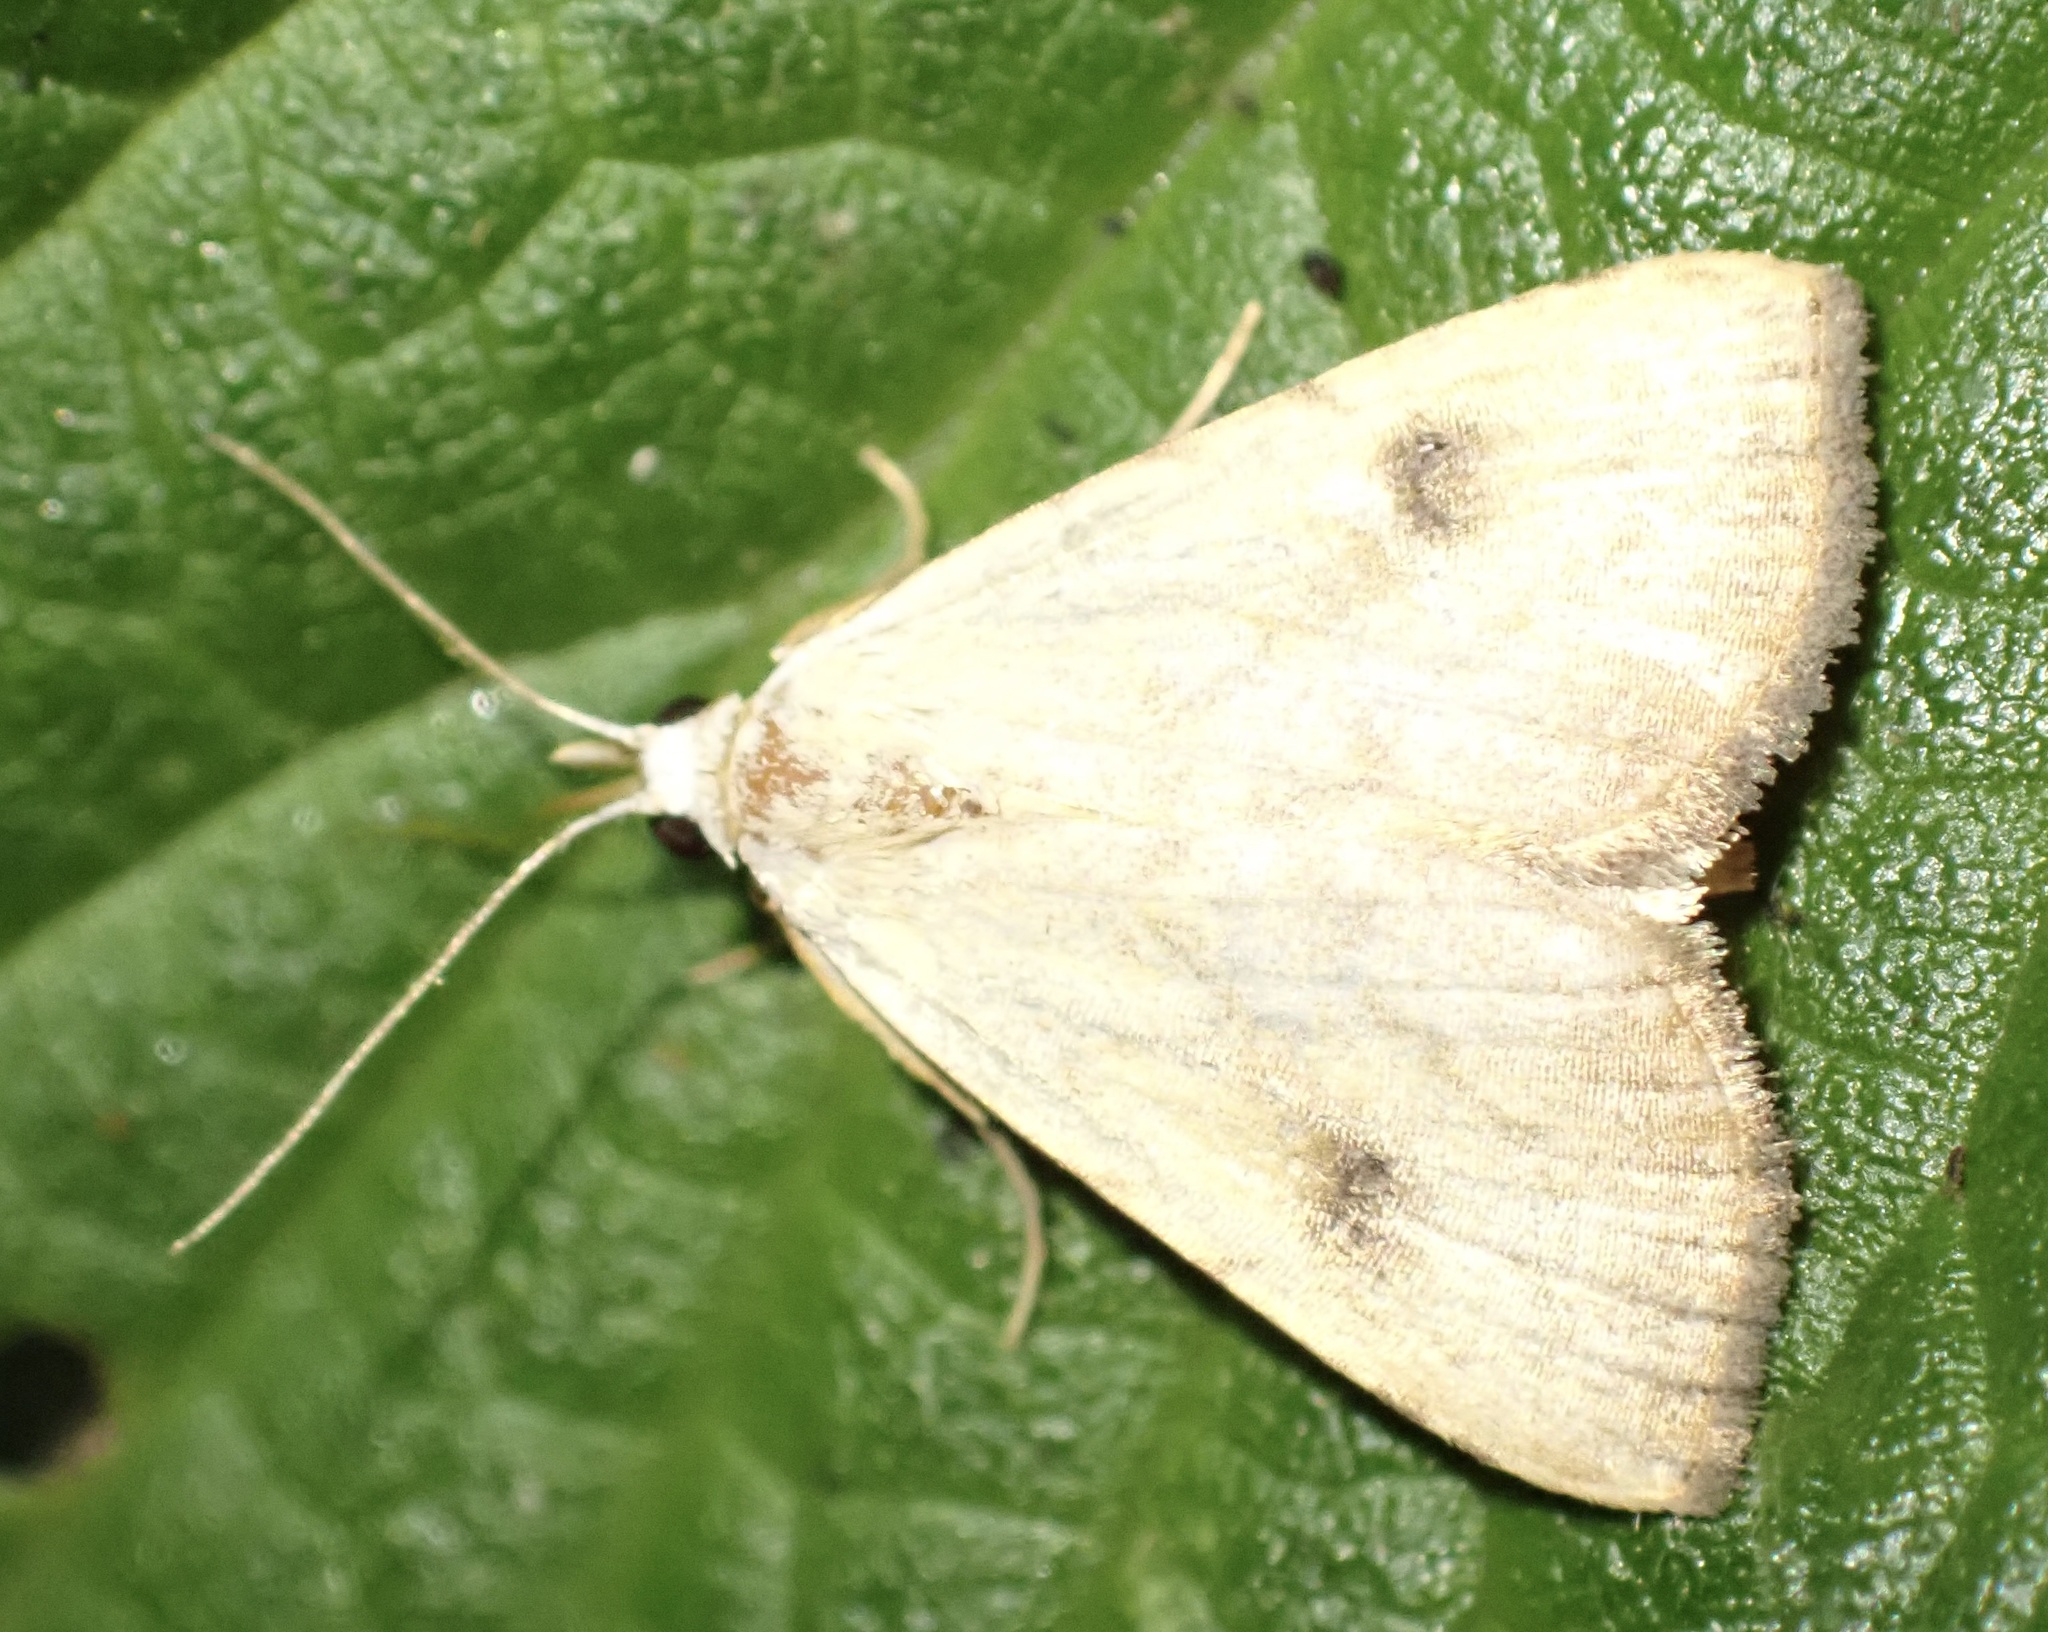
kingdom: Animalia
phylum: Arthropoda
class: Insecta
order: Lepidoptera
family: Erebidae
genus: Rivula
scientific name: Rivula sericealis
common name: Straw dot
